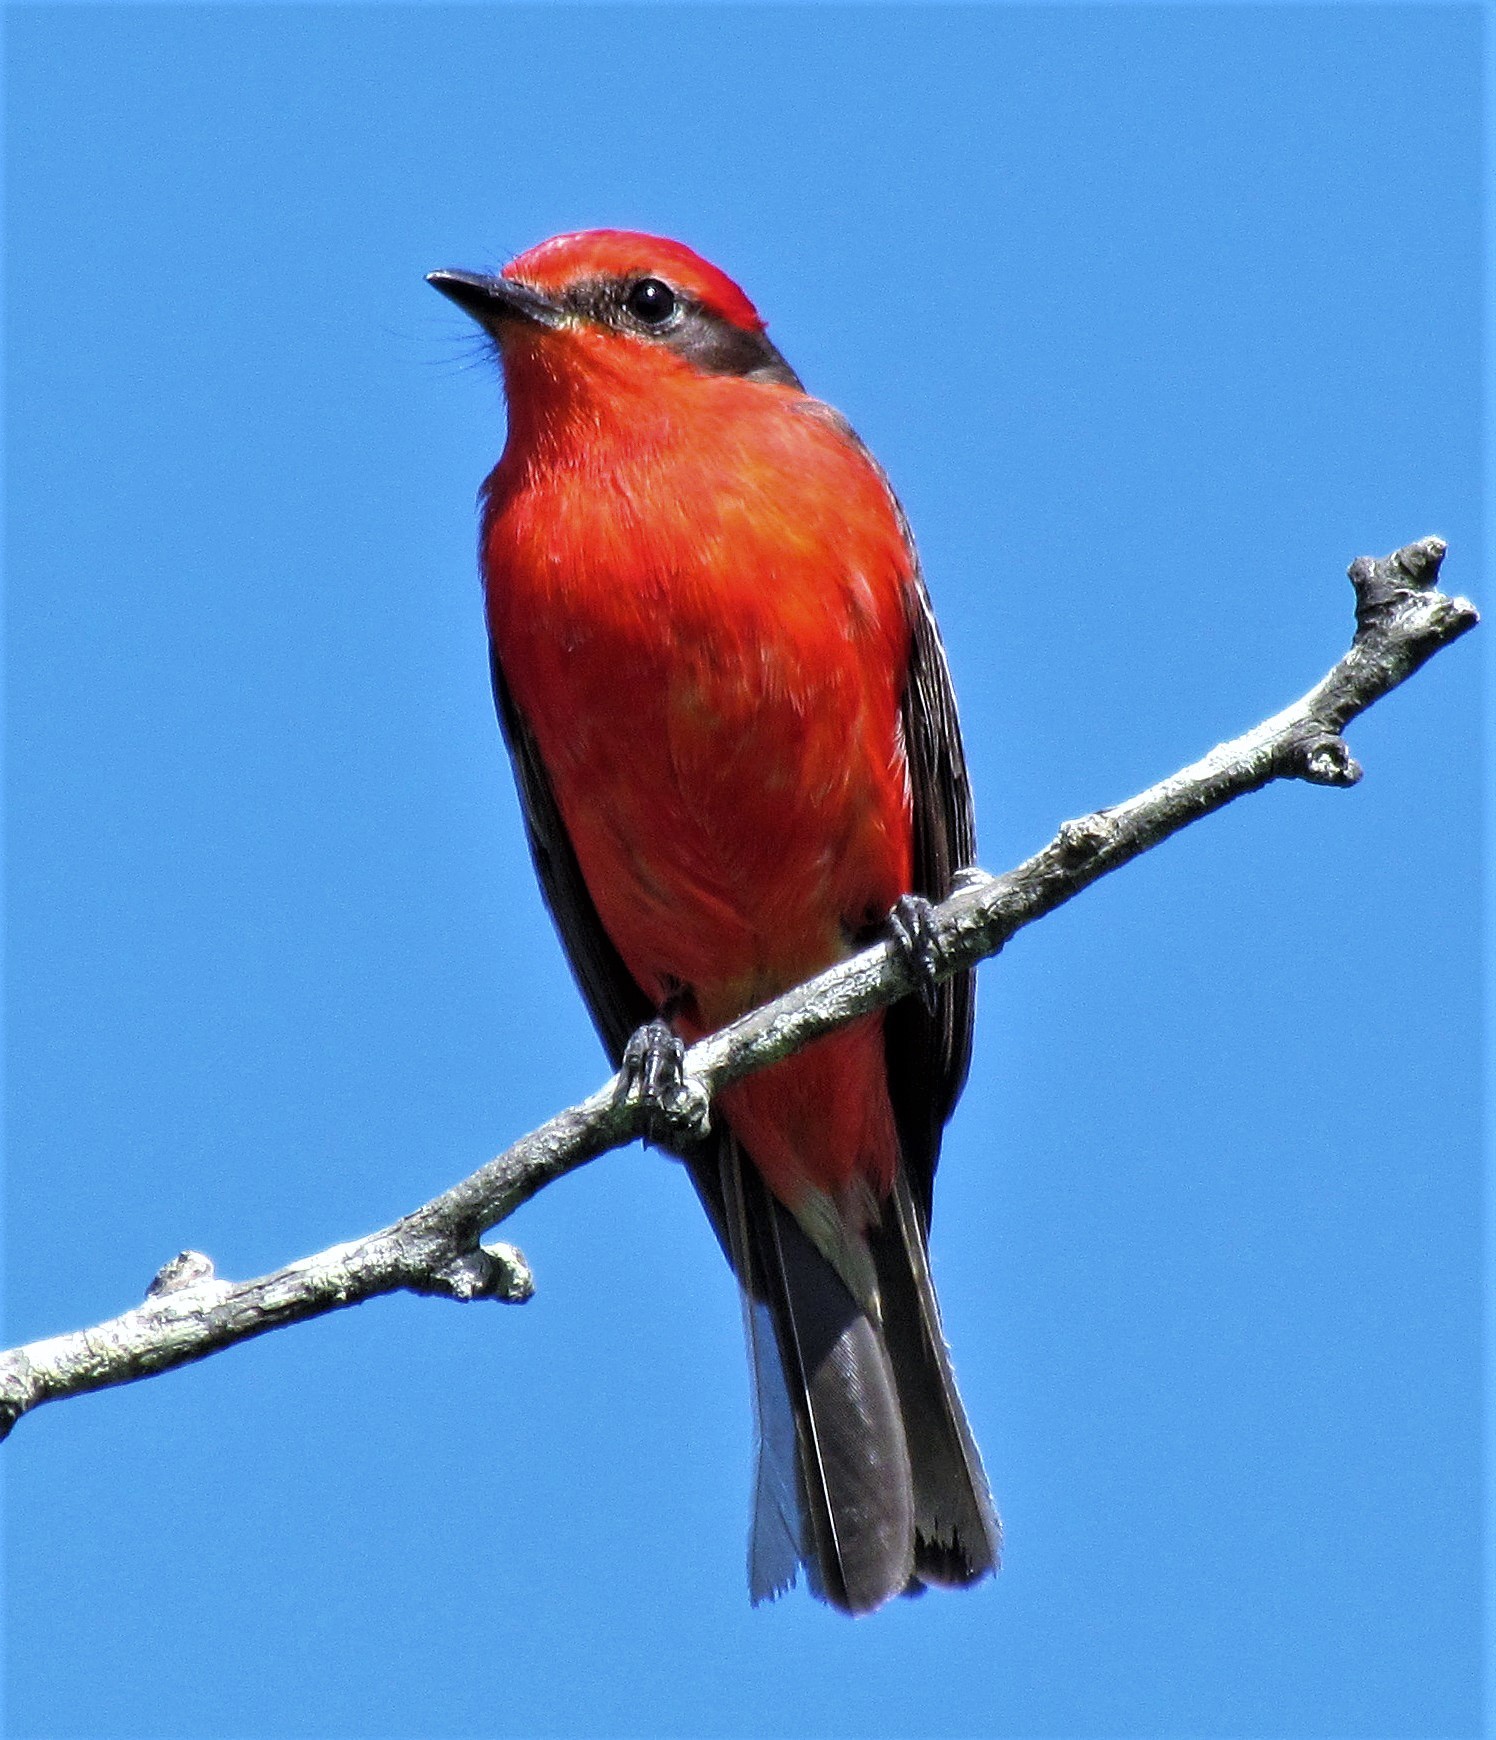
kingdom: Animalia
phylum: Chordata
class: Aves
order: Passeriformes
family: Tyrannidae
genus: Pyrocephalus
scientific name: Pyrocephalus rubinus
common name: Vermilion flycatcher
